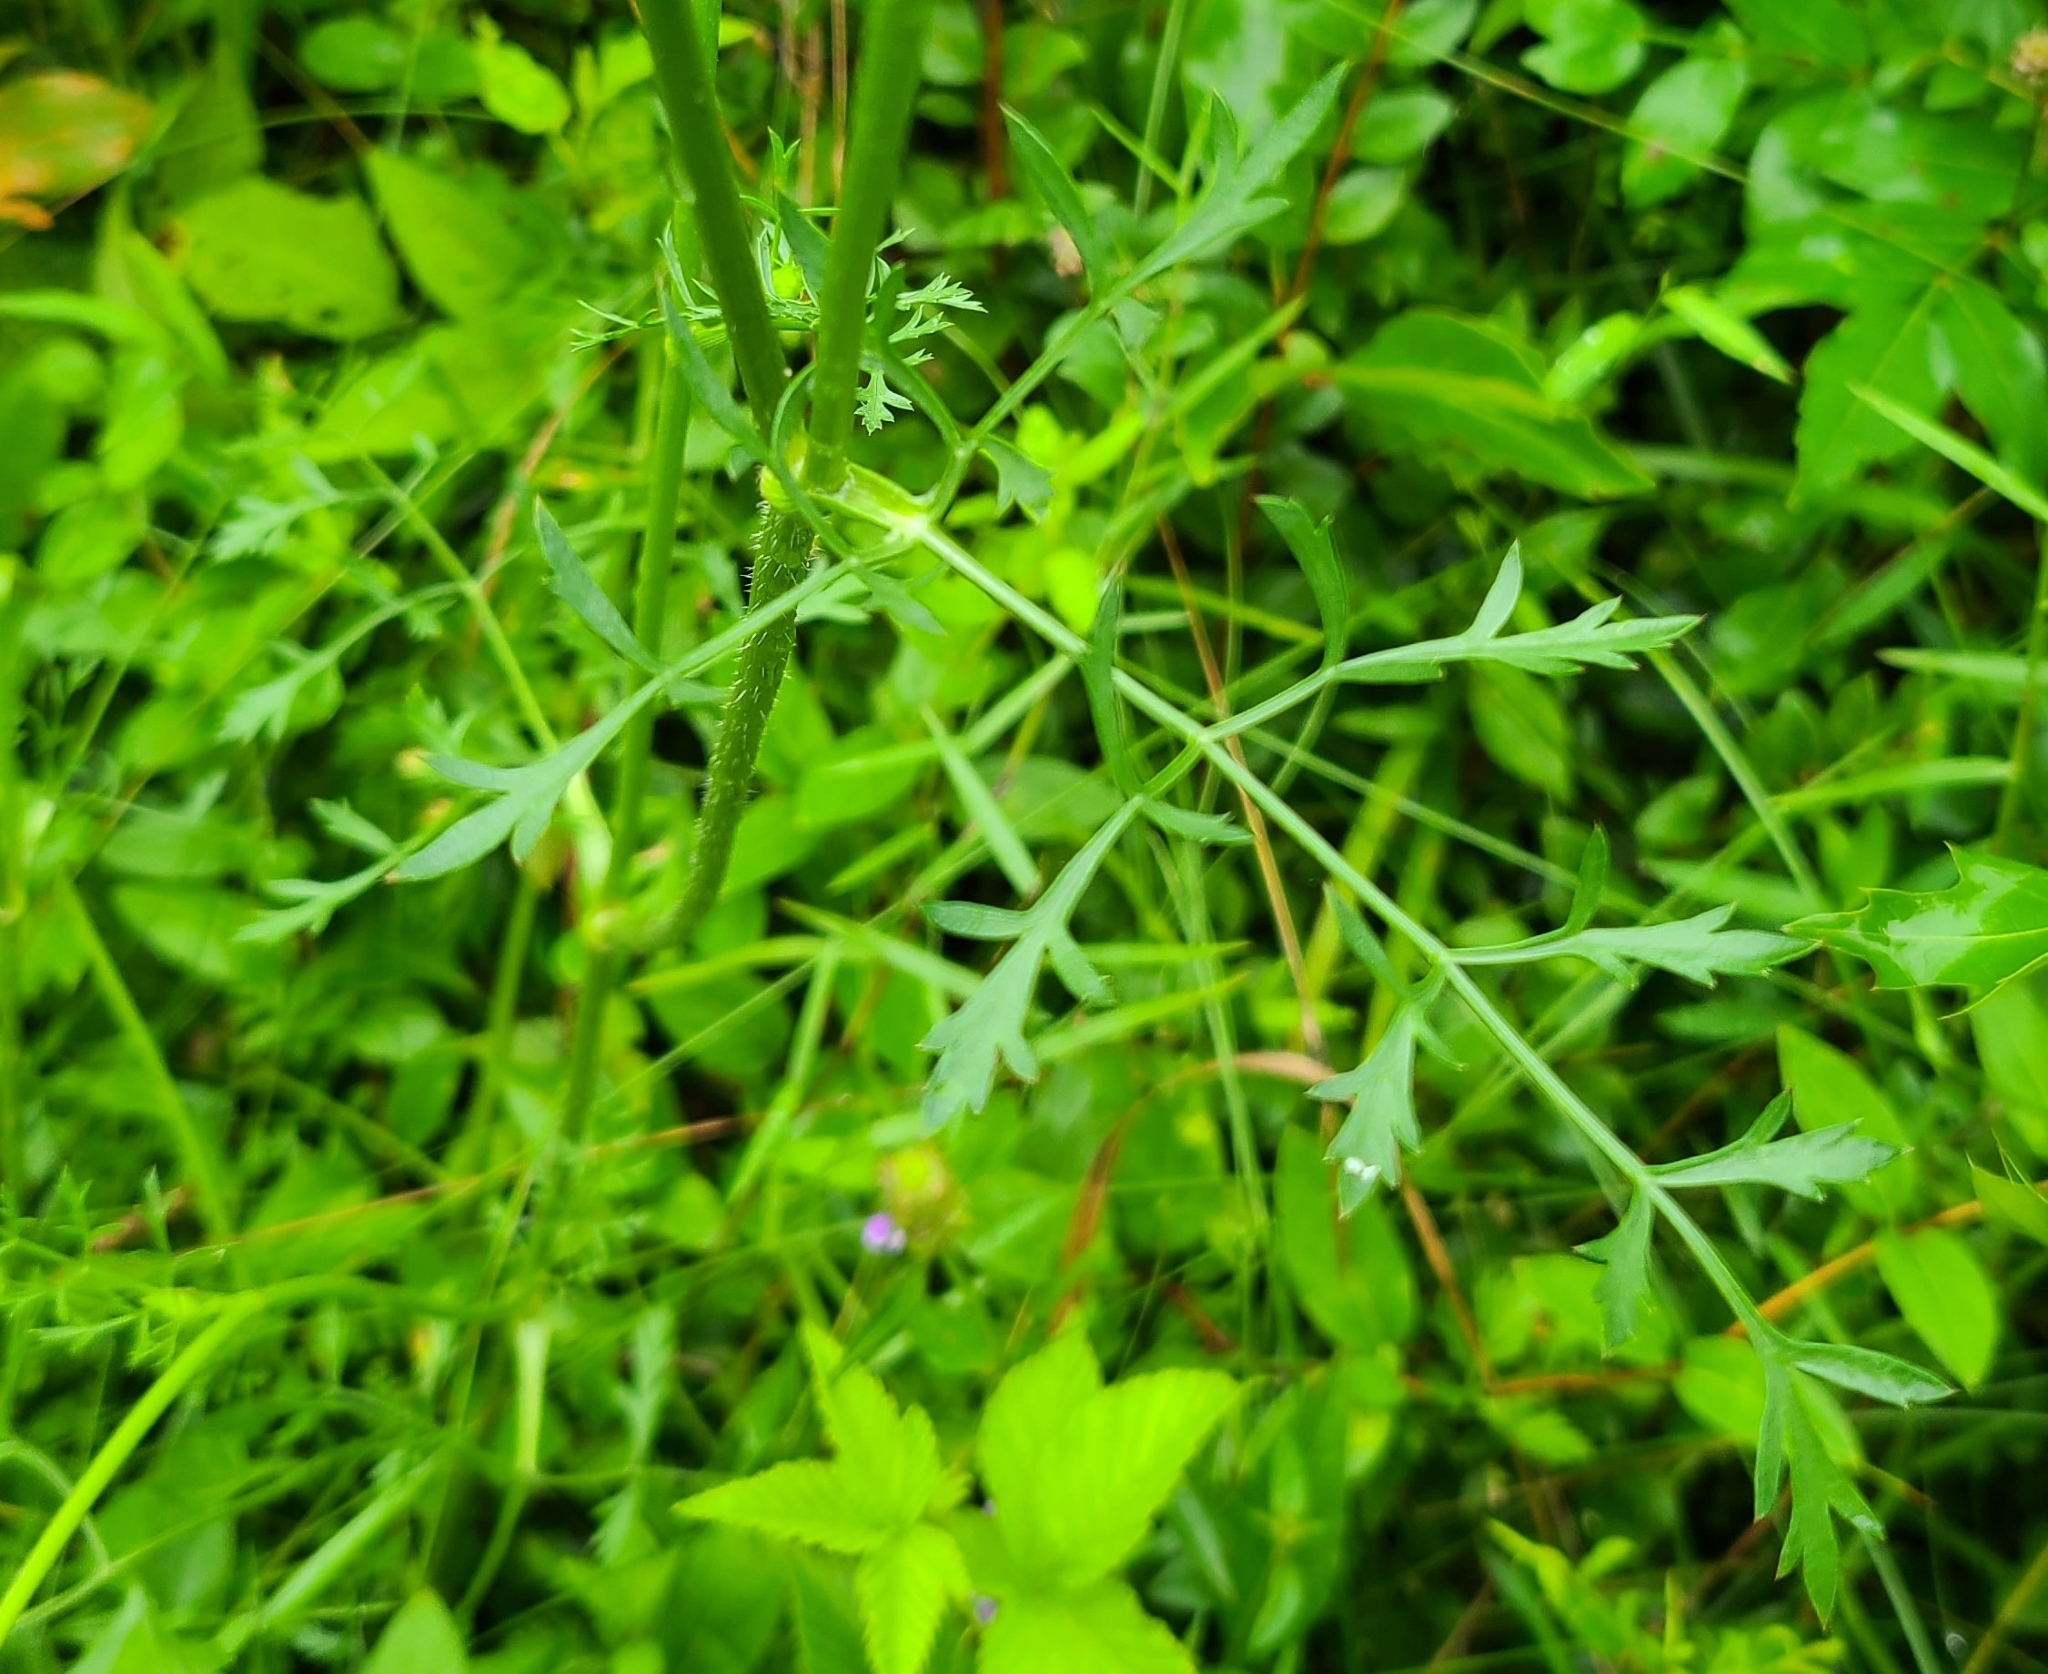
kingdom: Plantae
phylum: Tracheophyta
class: Magnoliopsida
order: Apiales
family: Apiaceae
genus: Daucus
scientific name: Daucus carota
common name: Wild carrot
